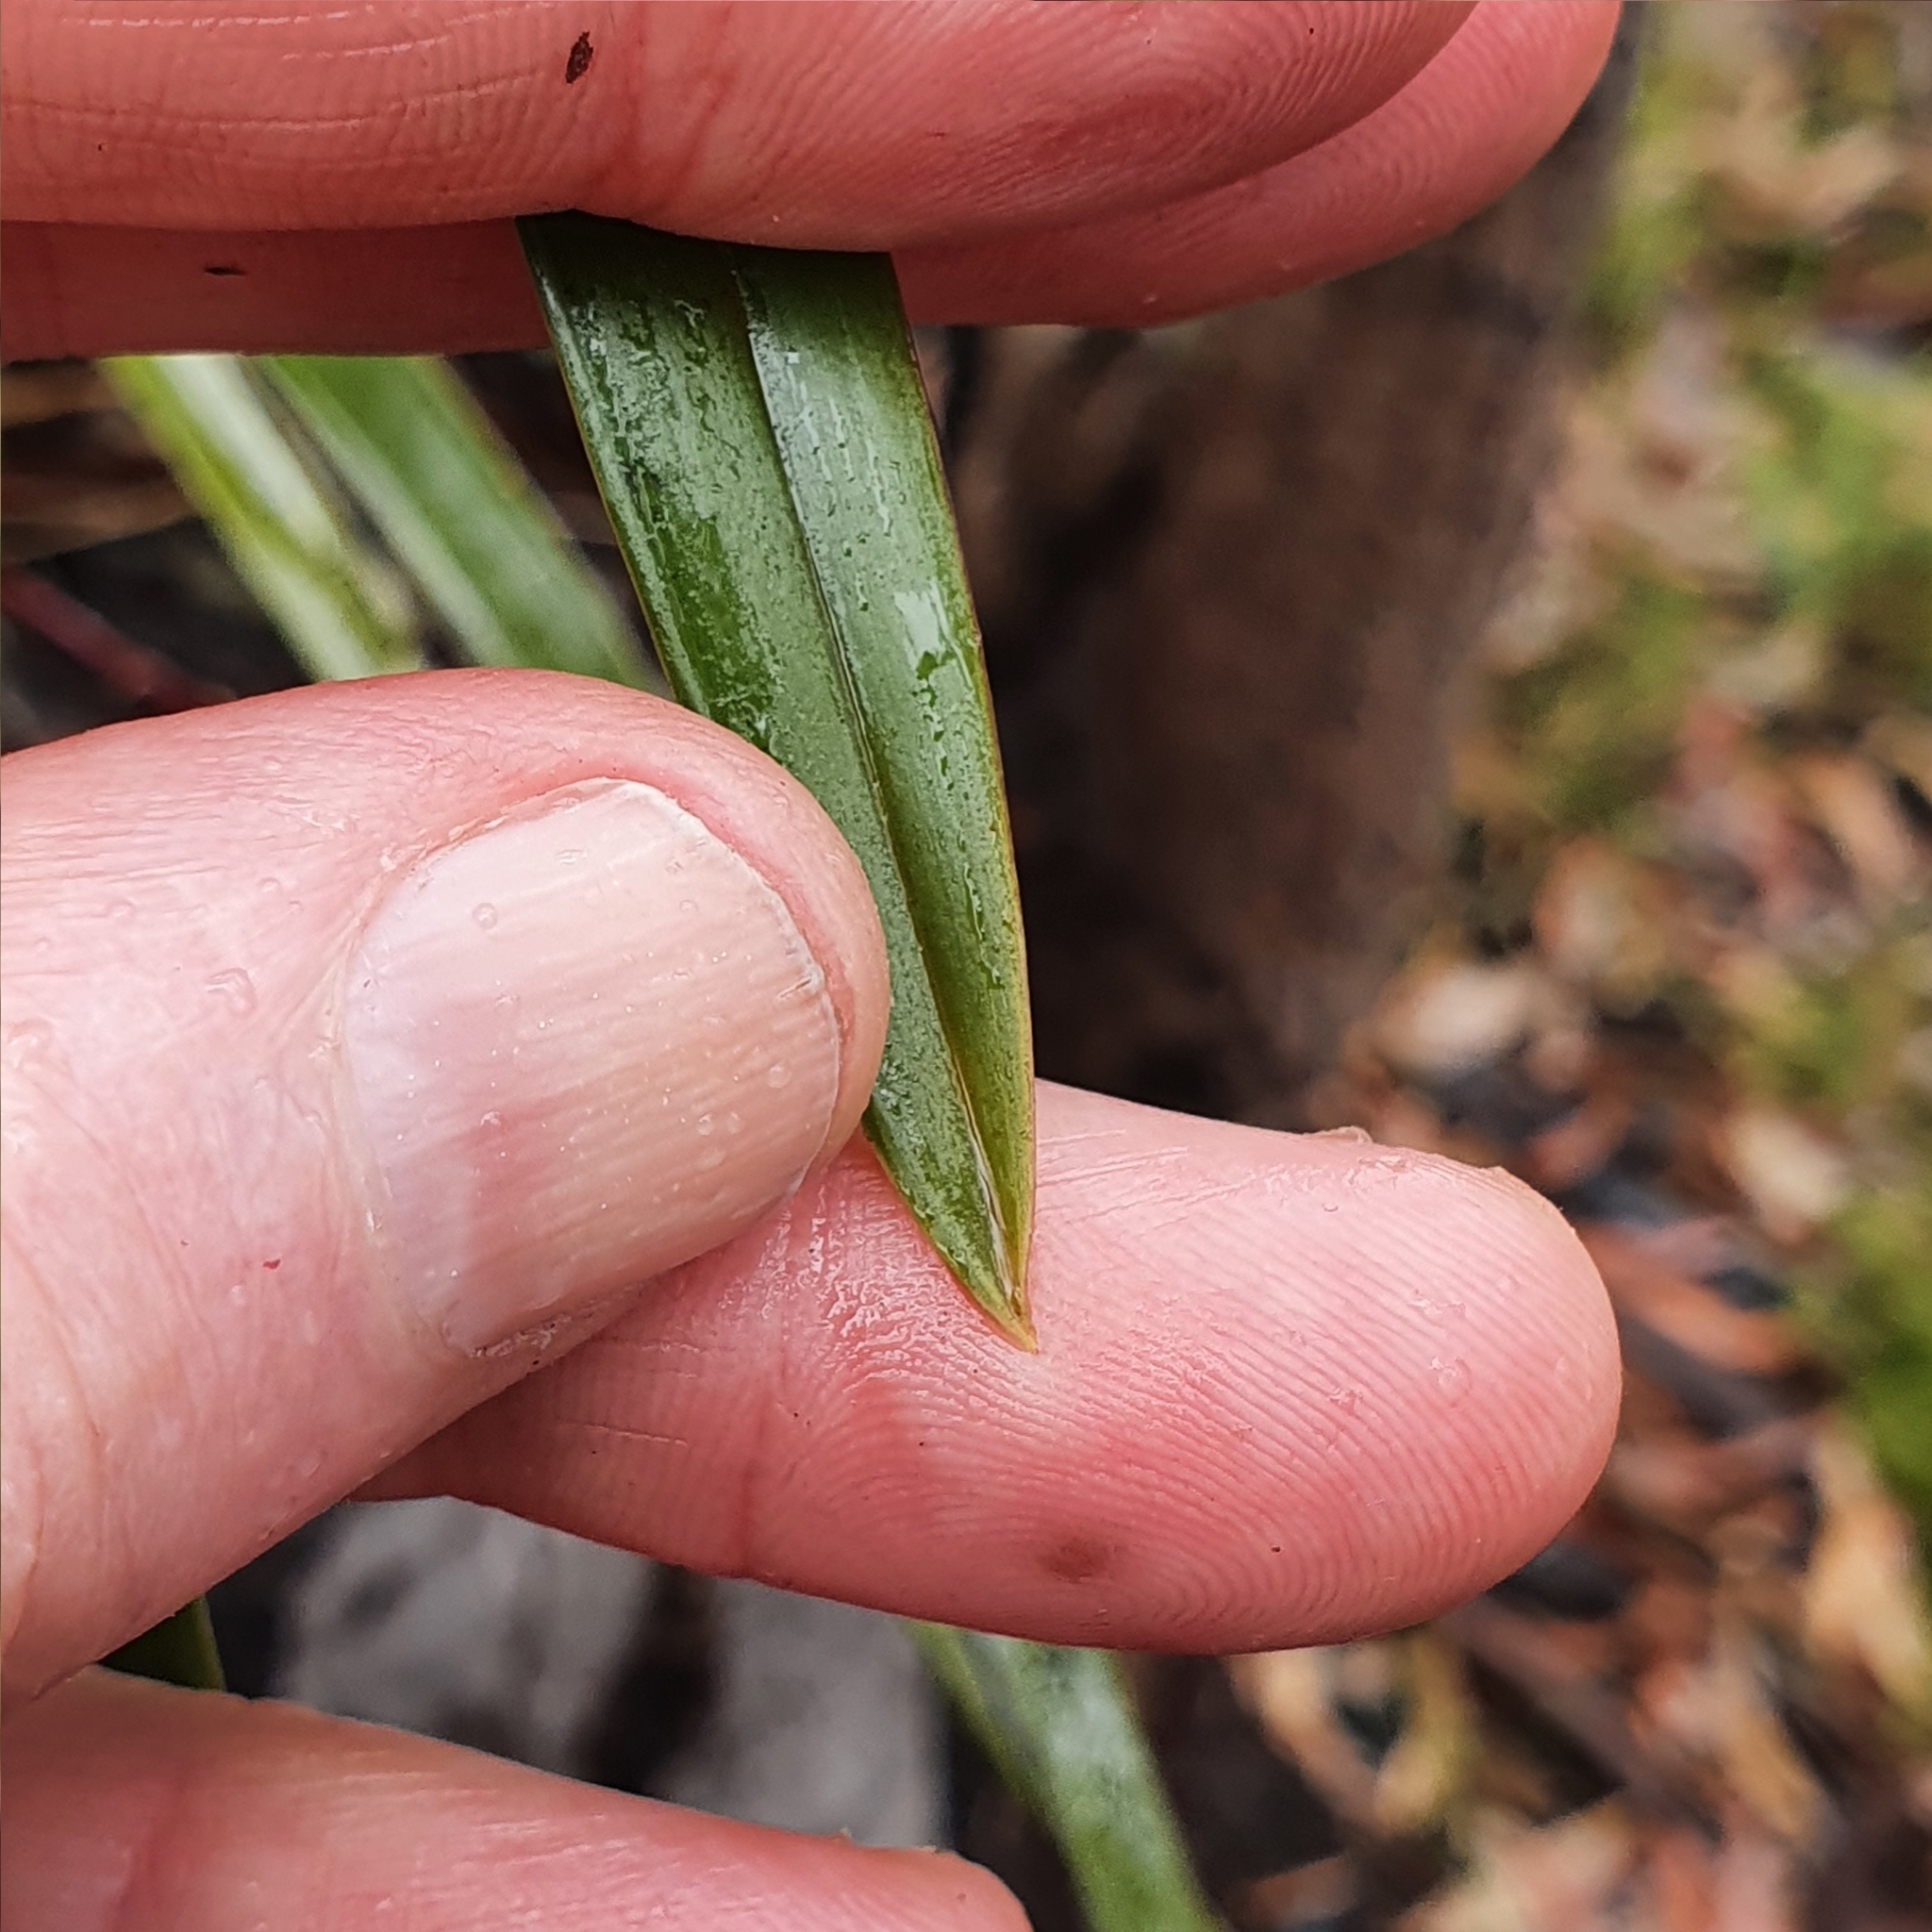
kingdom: Plantae
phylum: Tracheophyta
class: Liliopsida
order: Asparagales
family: Orchidaceae
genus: Cymbidium
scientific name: Cymbidium suave
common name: Snake orchid
